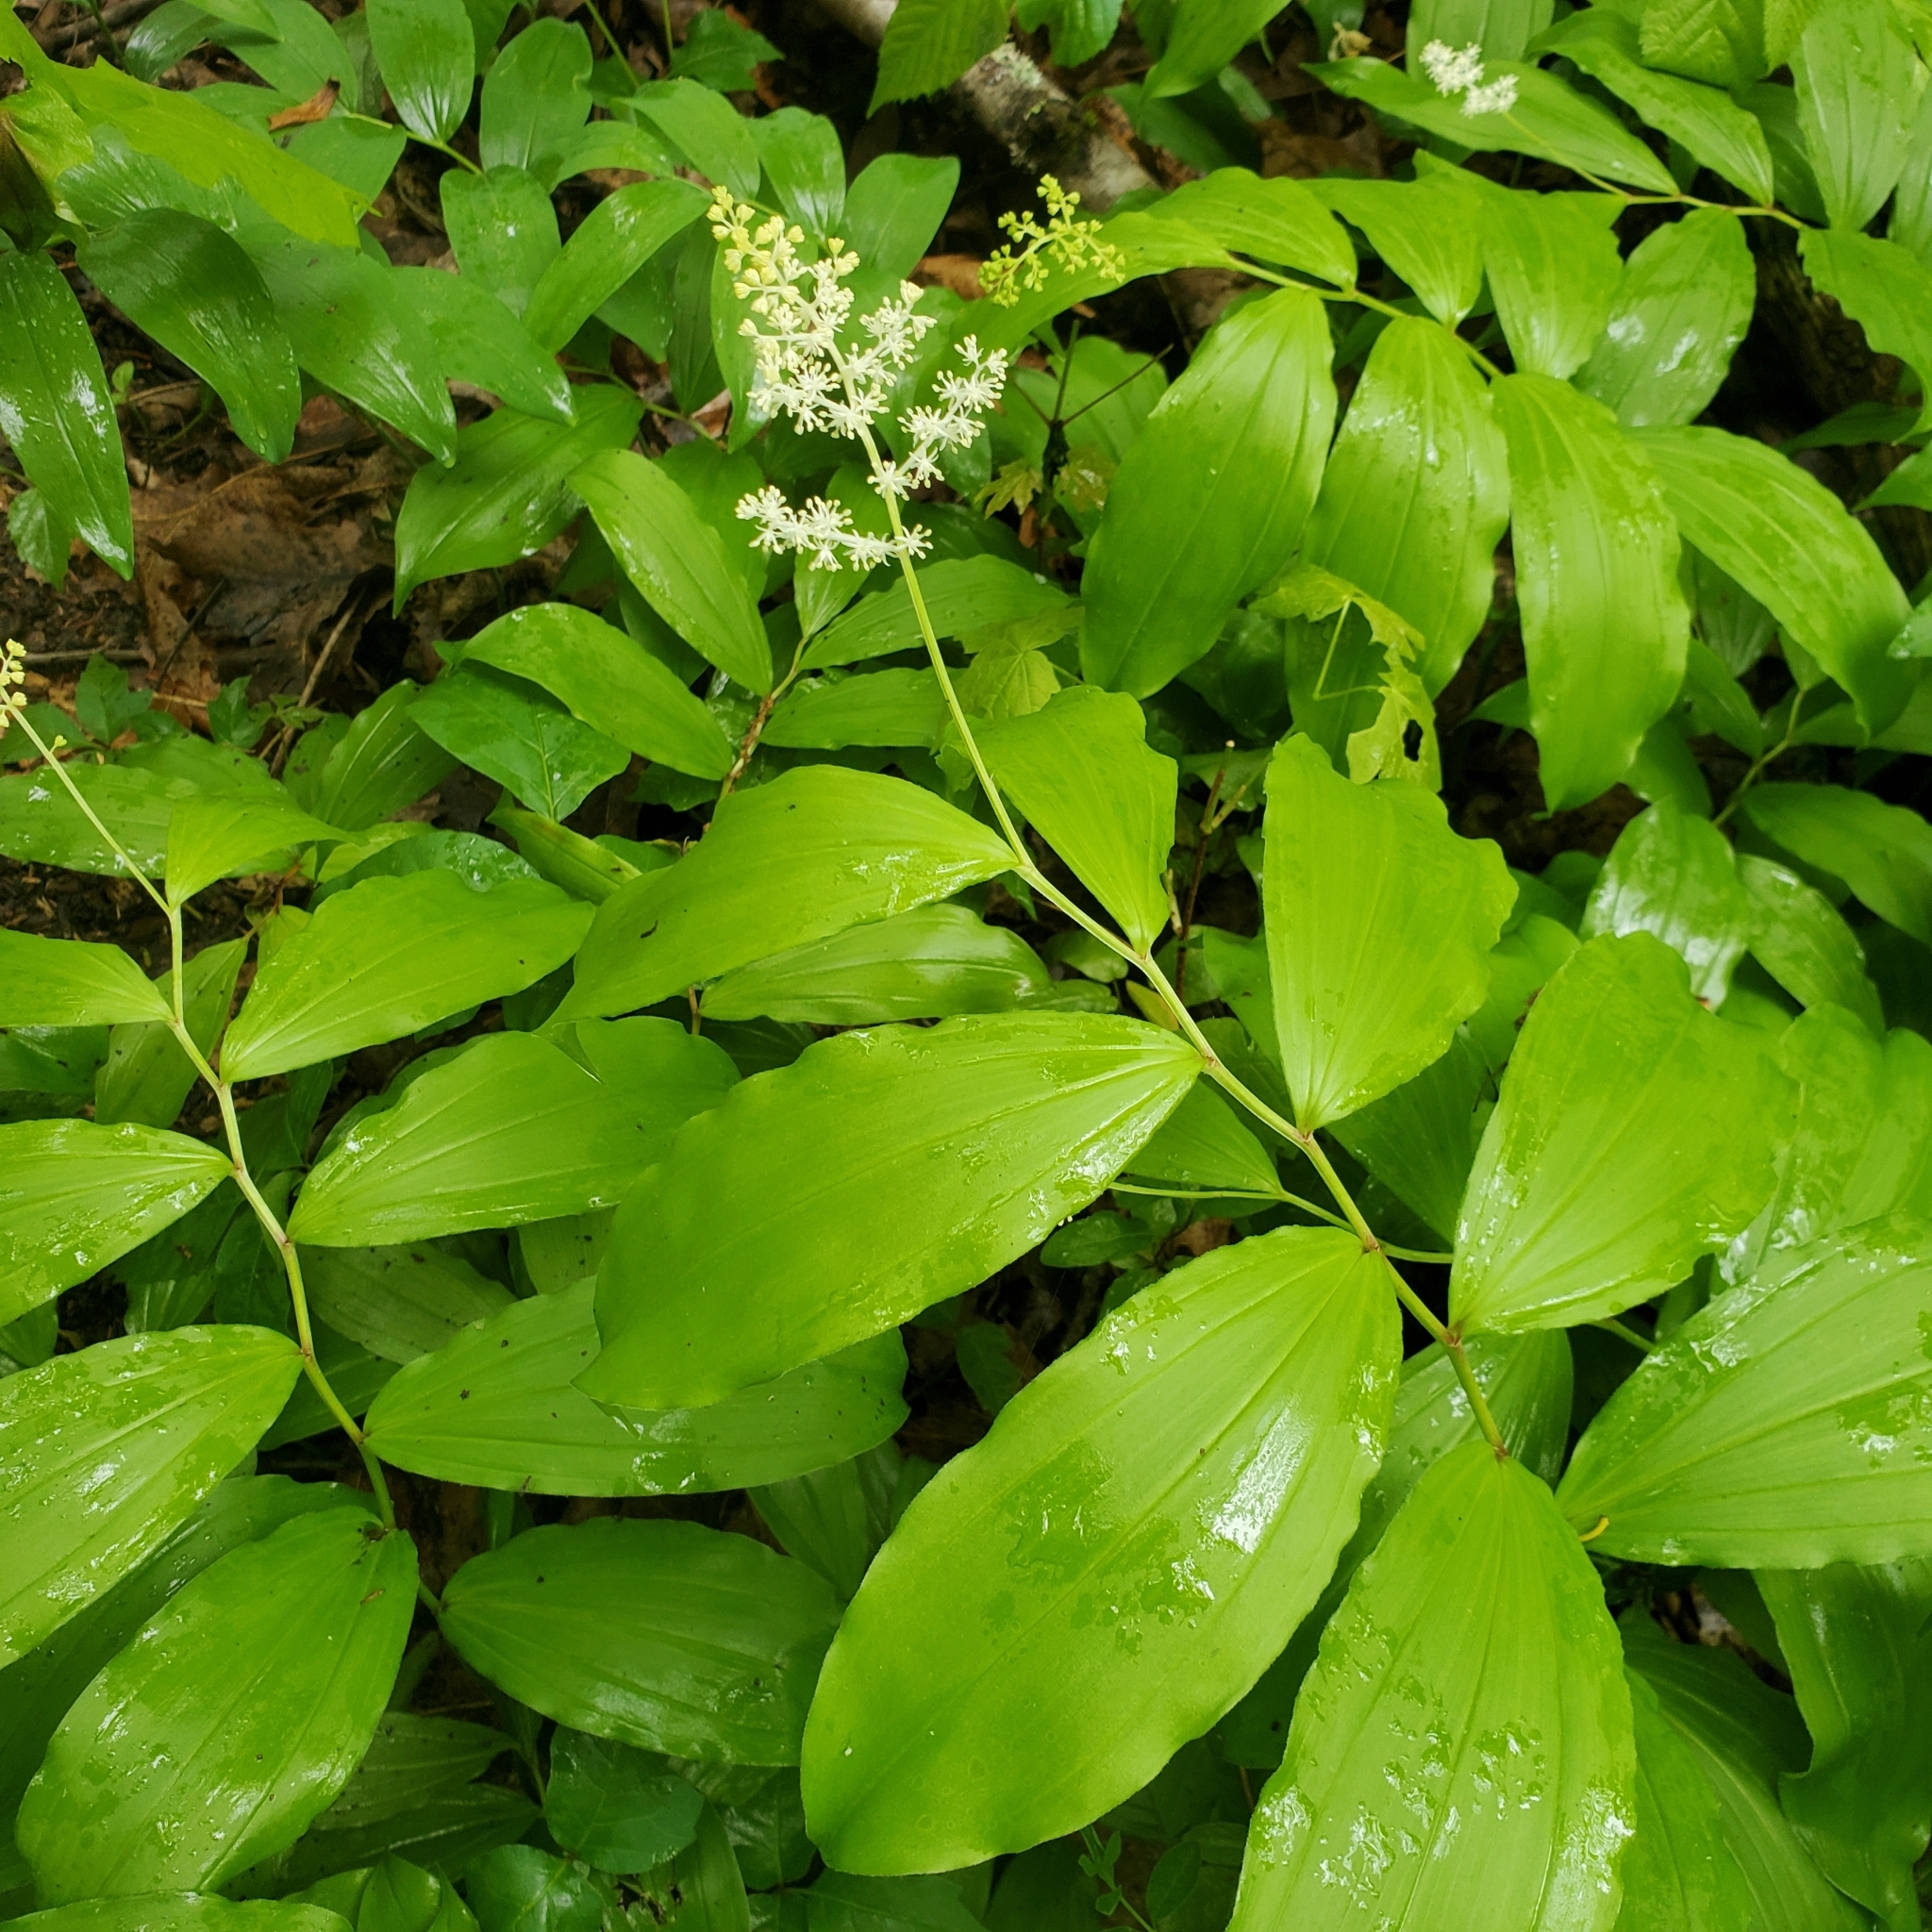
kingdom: Plantae
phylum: Tracheophyta
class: Liliopsida
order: Asparagales
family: Asparagaceae
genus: Maianthemum
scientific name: Maianthemum racemosum
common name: False spikenard
